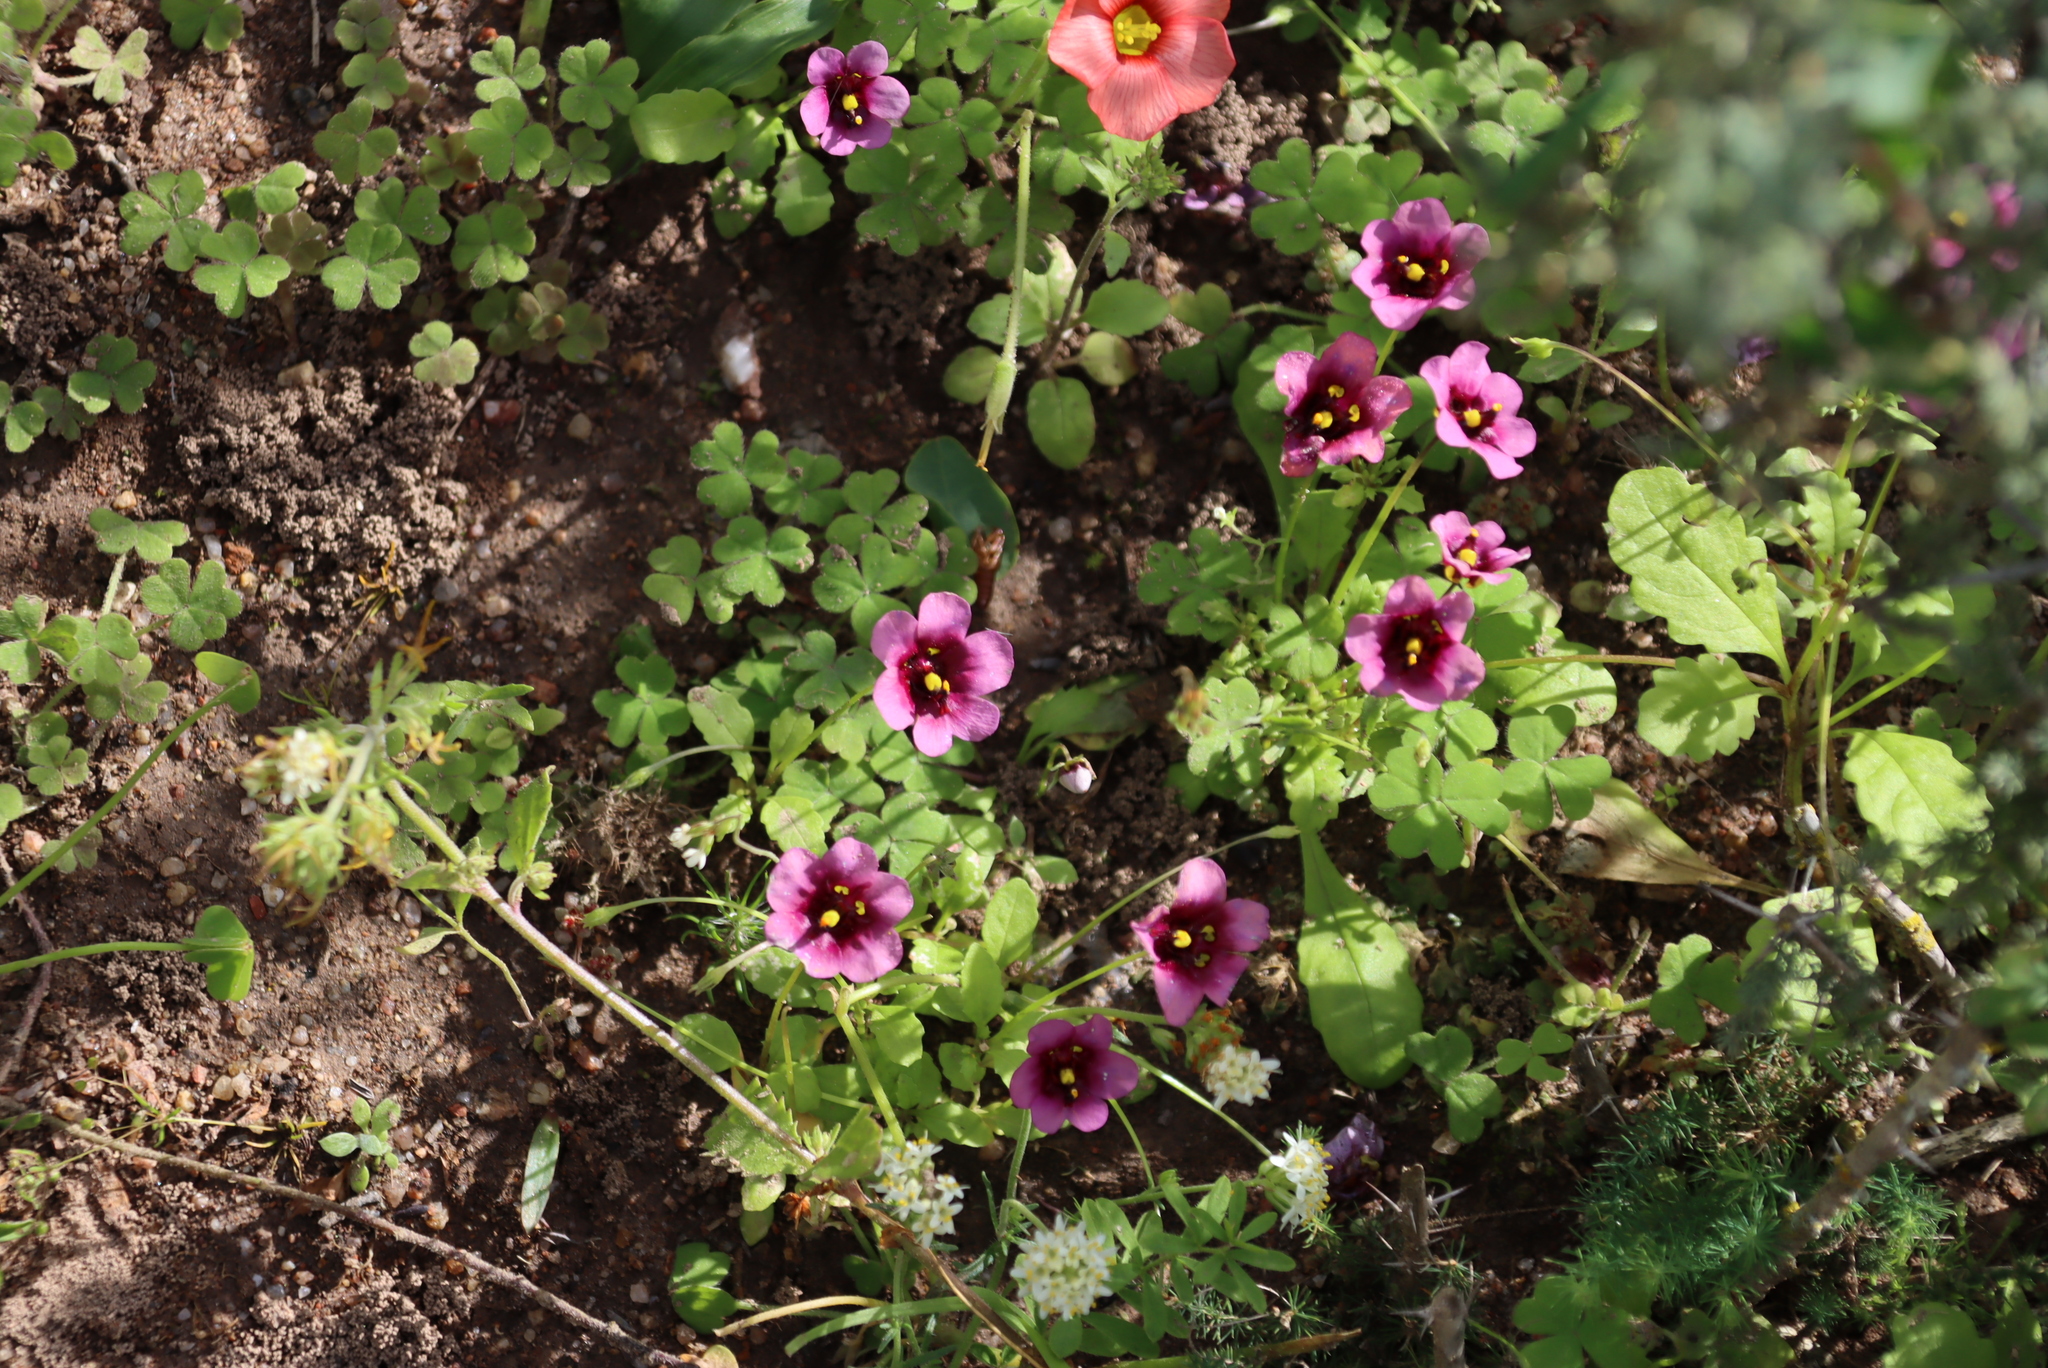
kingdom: Plantae
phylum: Tracheophyta
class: Magnoliopsida
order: Oxalidales
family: Oxalidaceae
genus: Oxalis
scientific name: Oxalis obtusa
